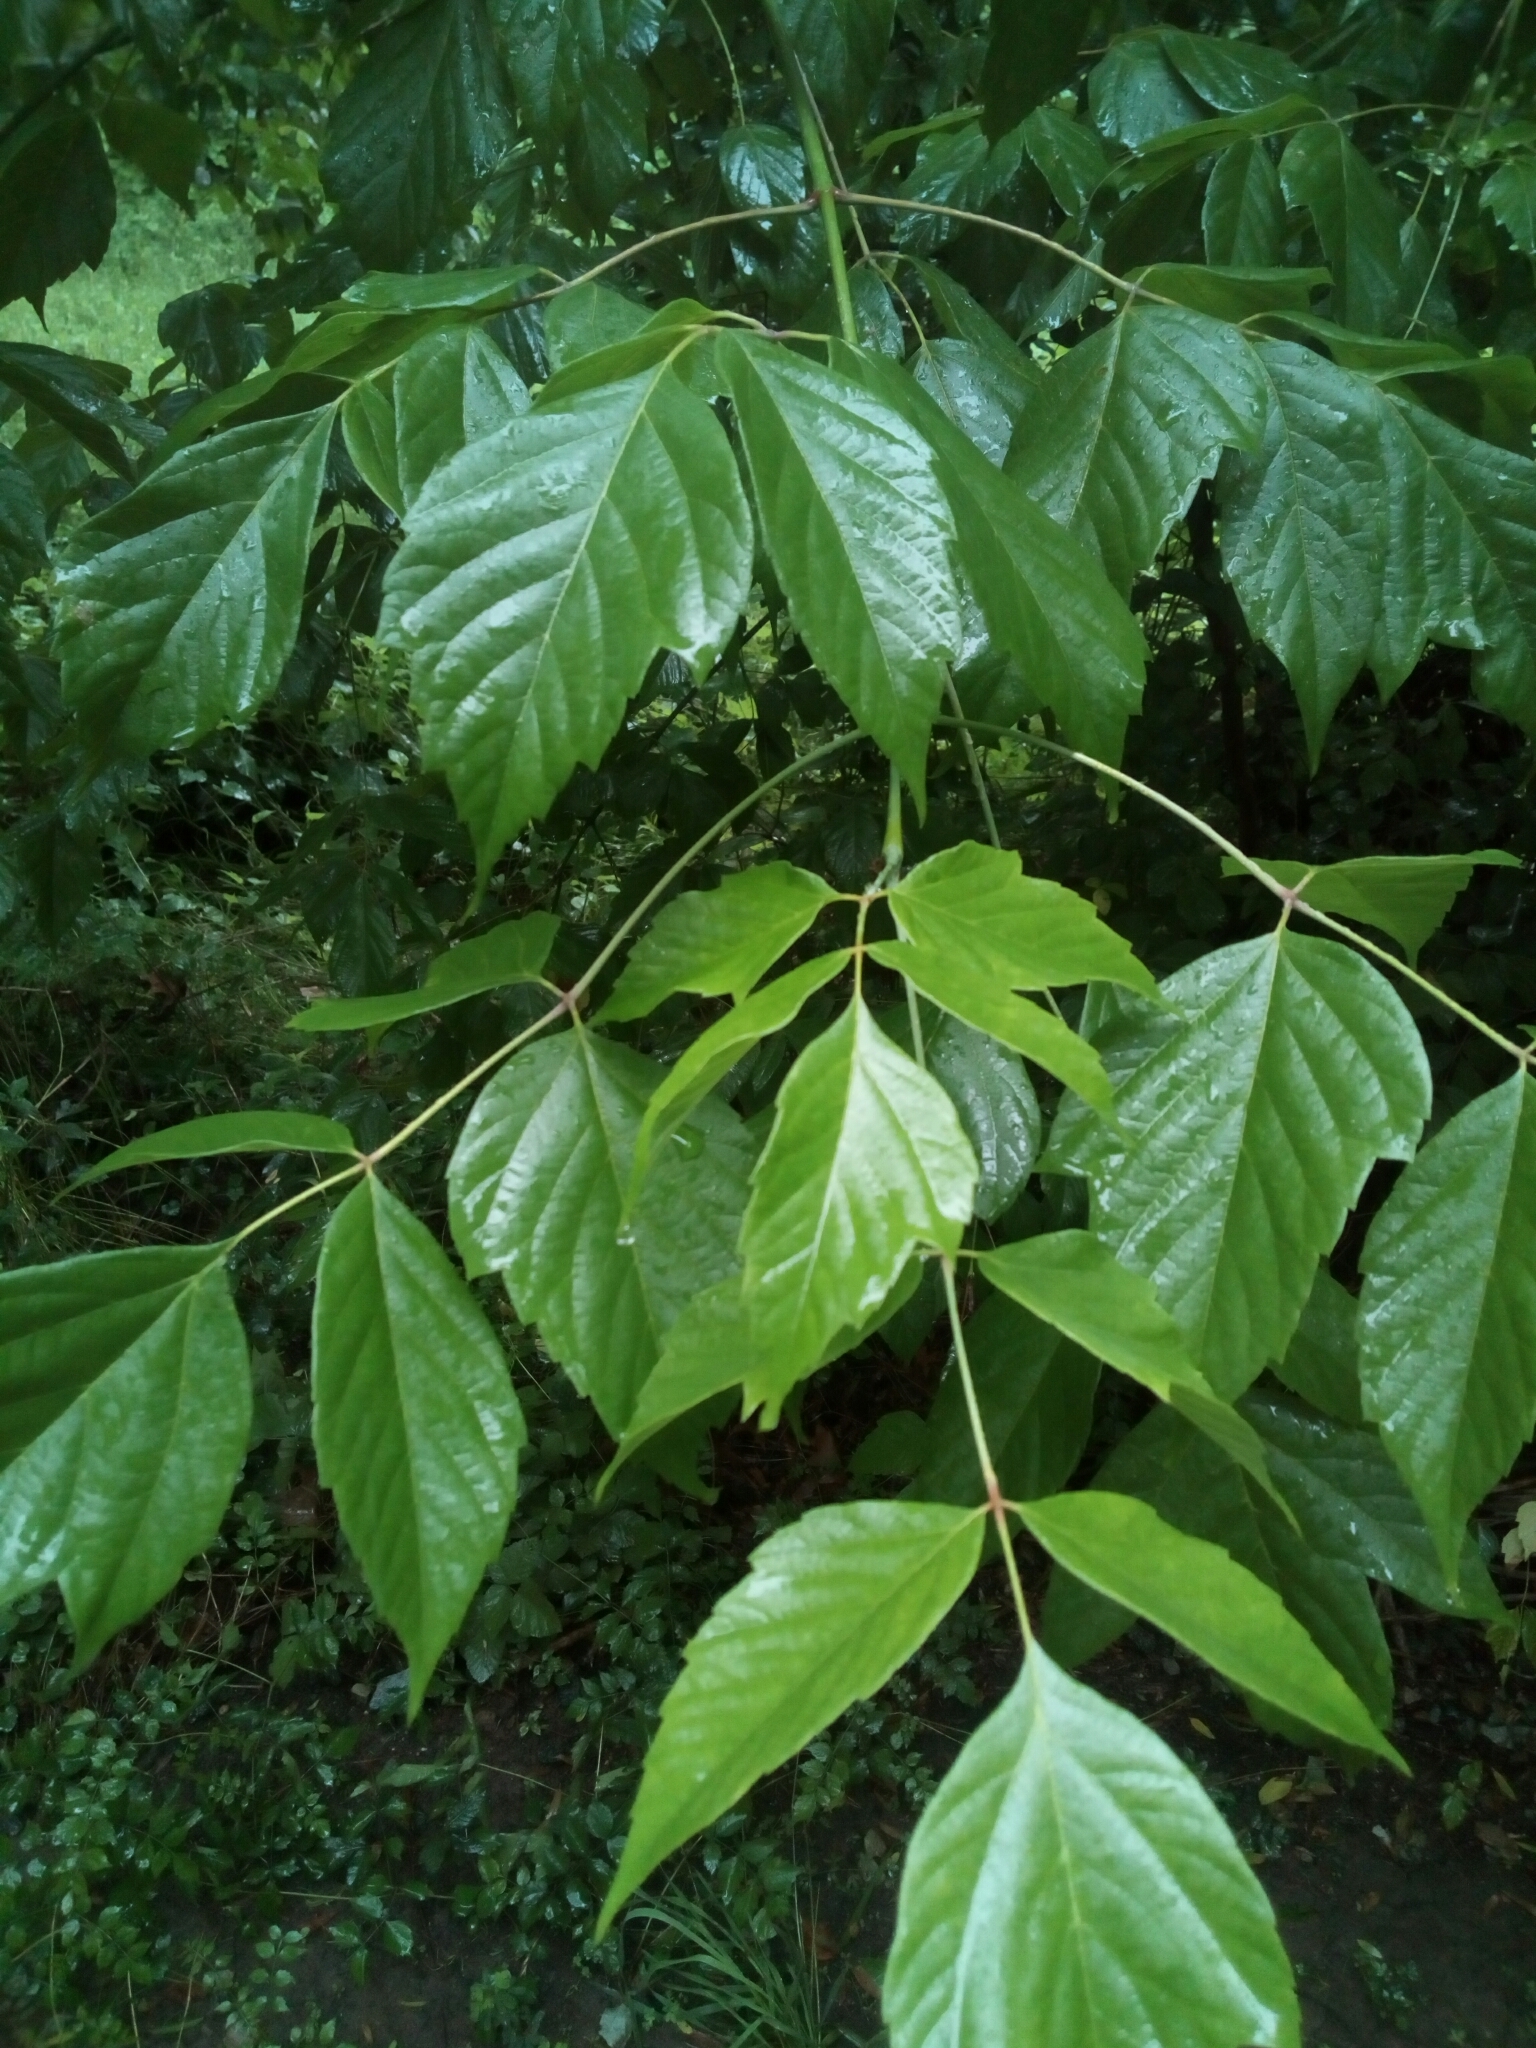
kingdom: Plantae
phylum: Tracheophyta
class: Magnoliopsida
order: Sapindales
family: Sapindaceae
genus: Acer
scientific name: Acer negundo
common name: Ashleaf maple
